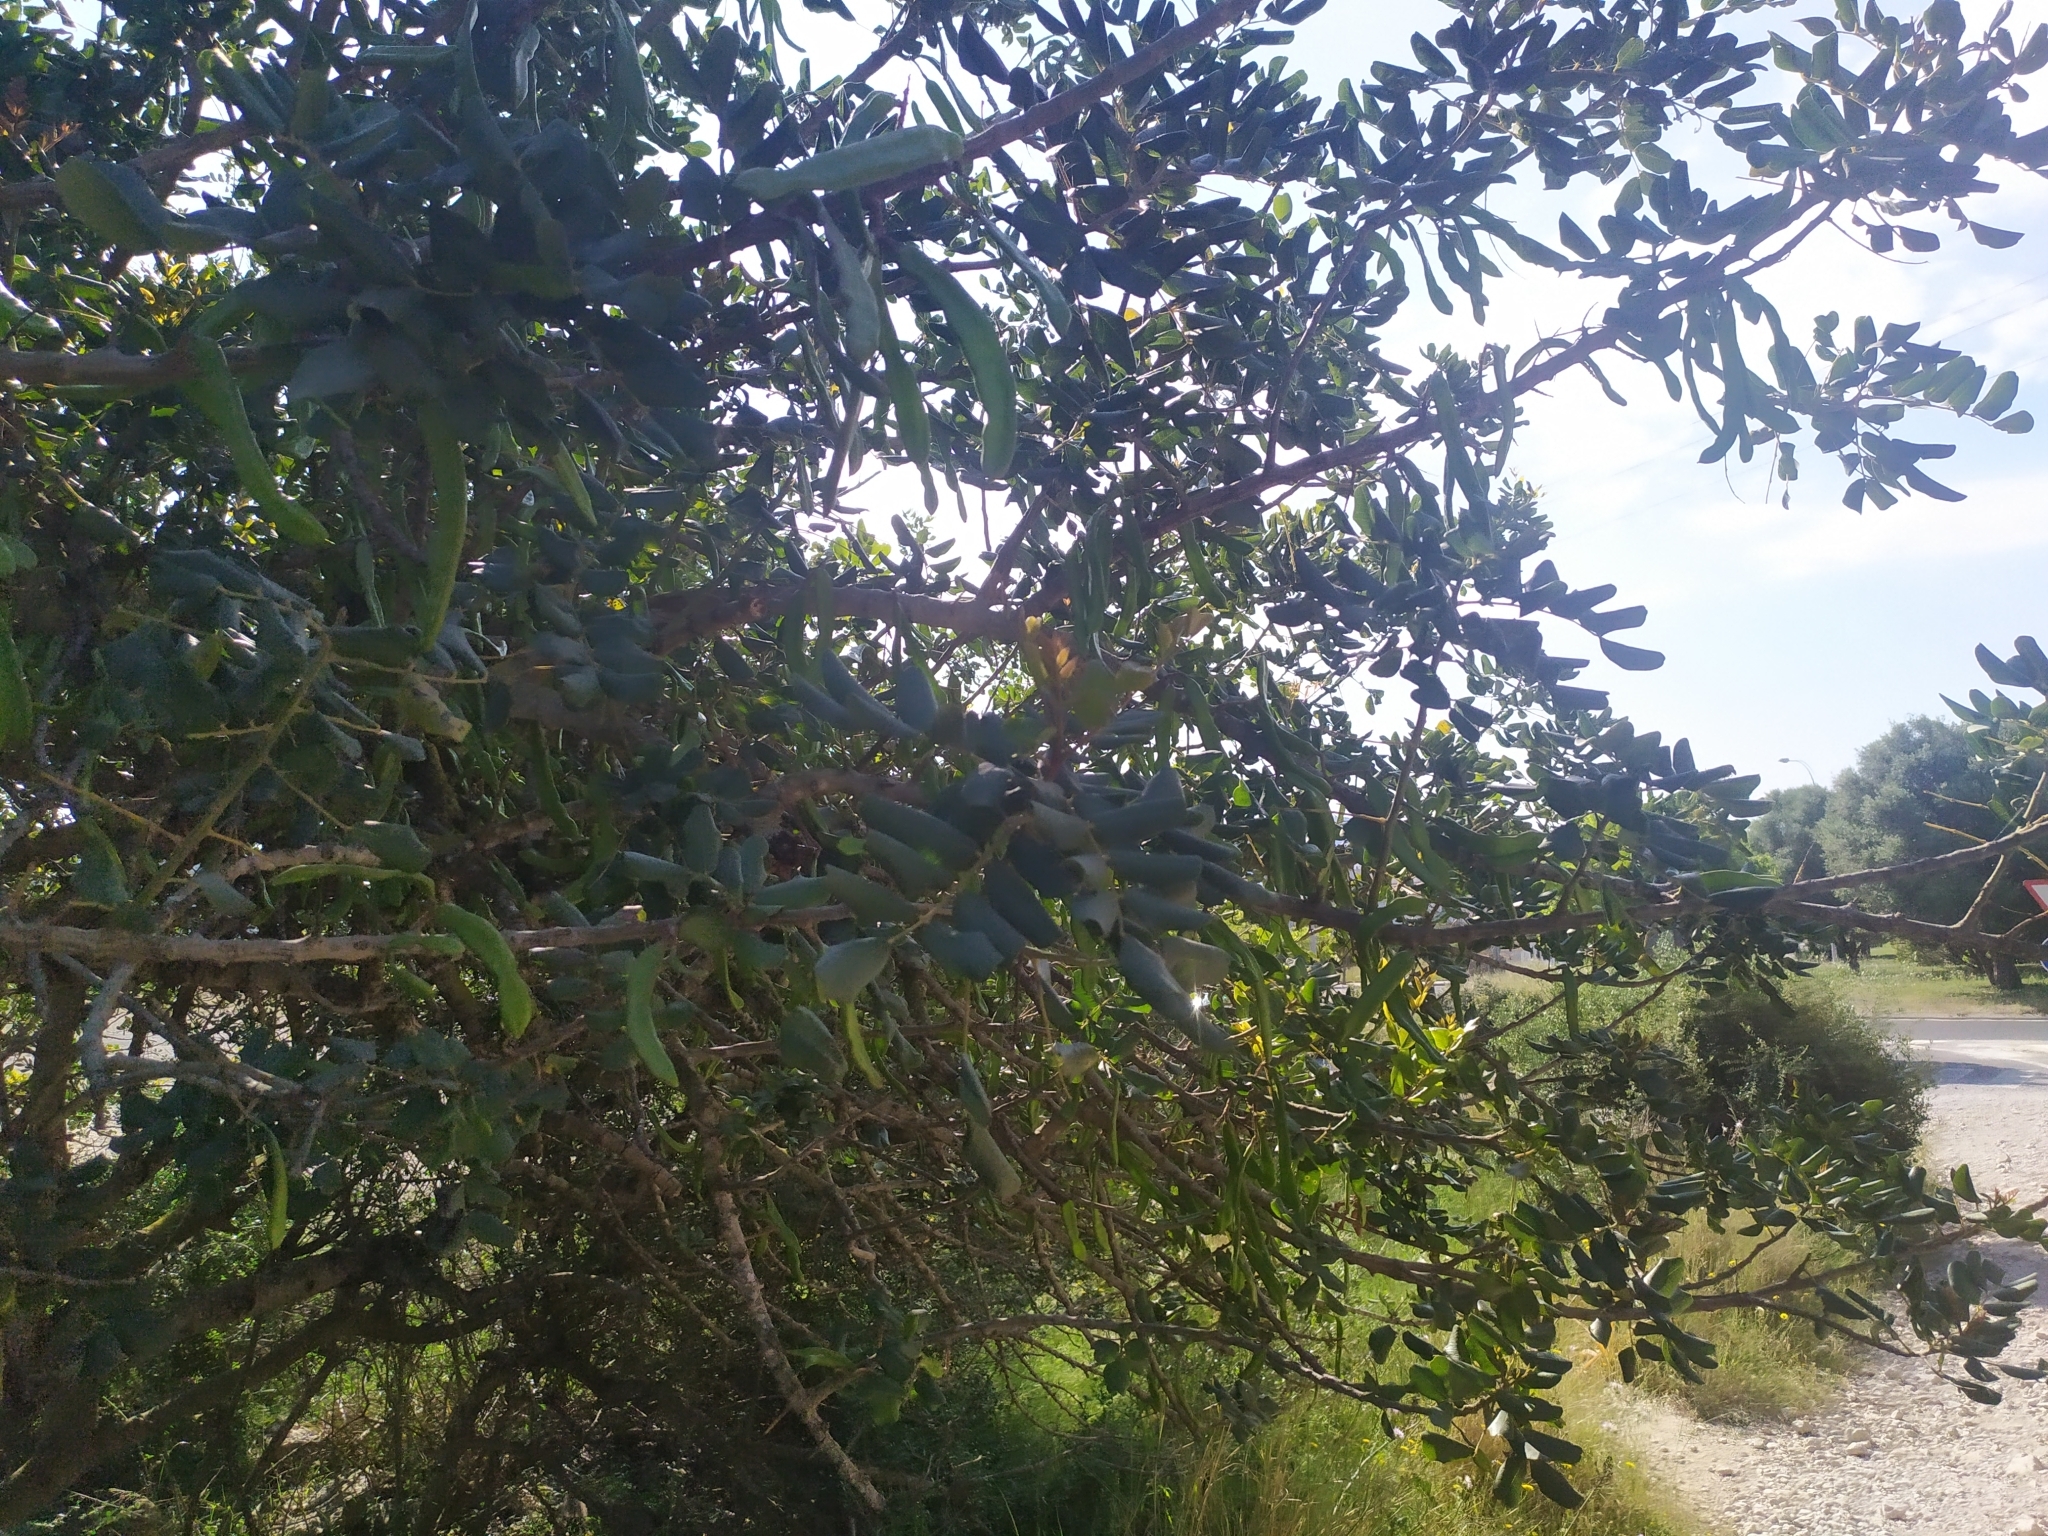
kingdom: Plantae
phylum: Tracheophyta
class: Magnoliopsida
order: Fabales
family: Fabaceae
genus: Ceratonia
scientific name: Ceratonia siliqua
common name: Carob
